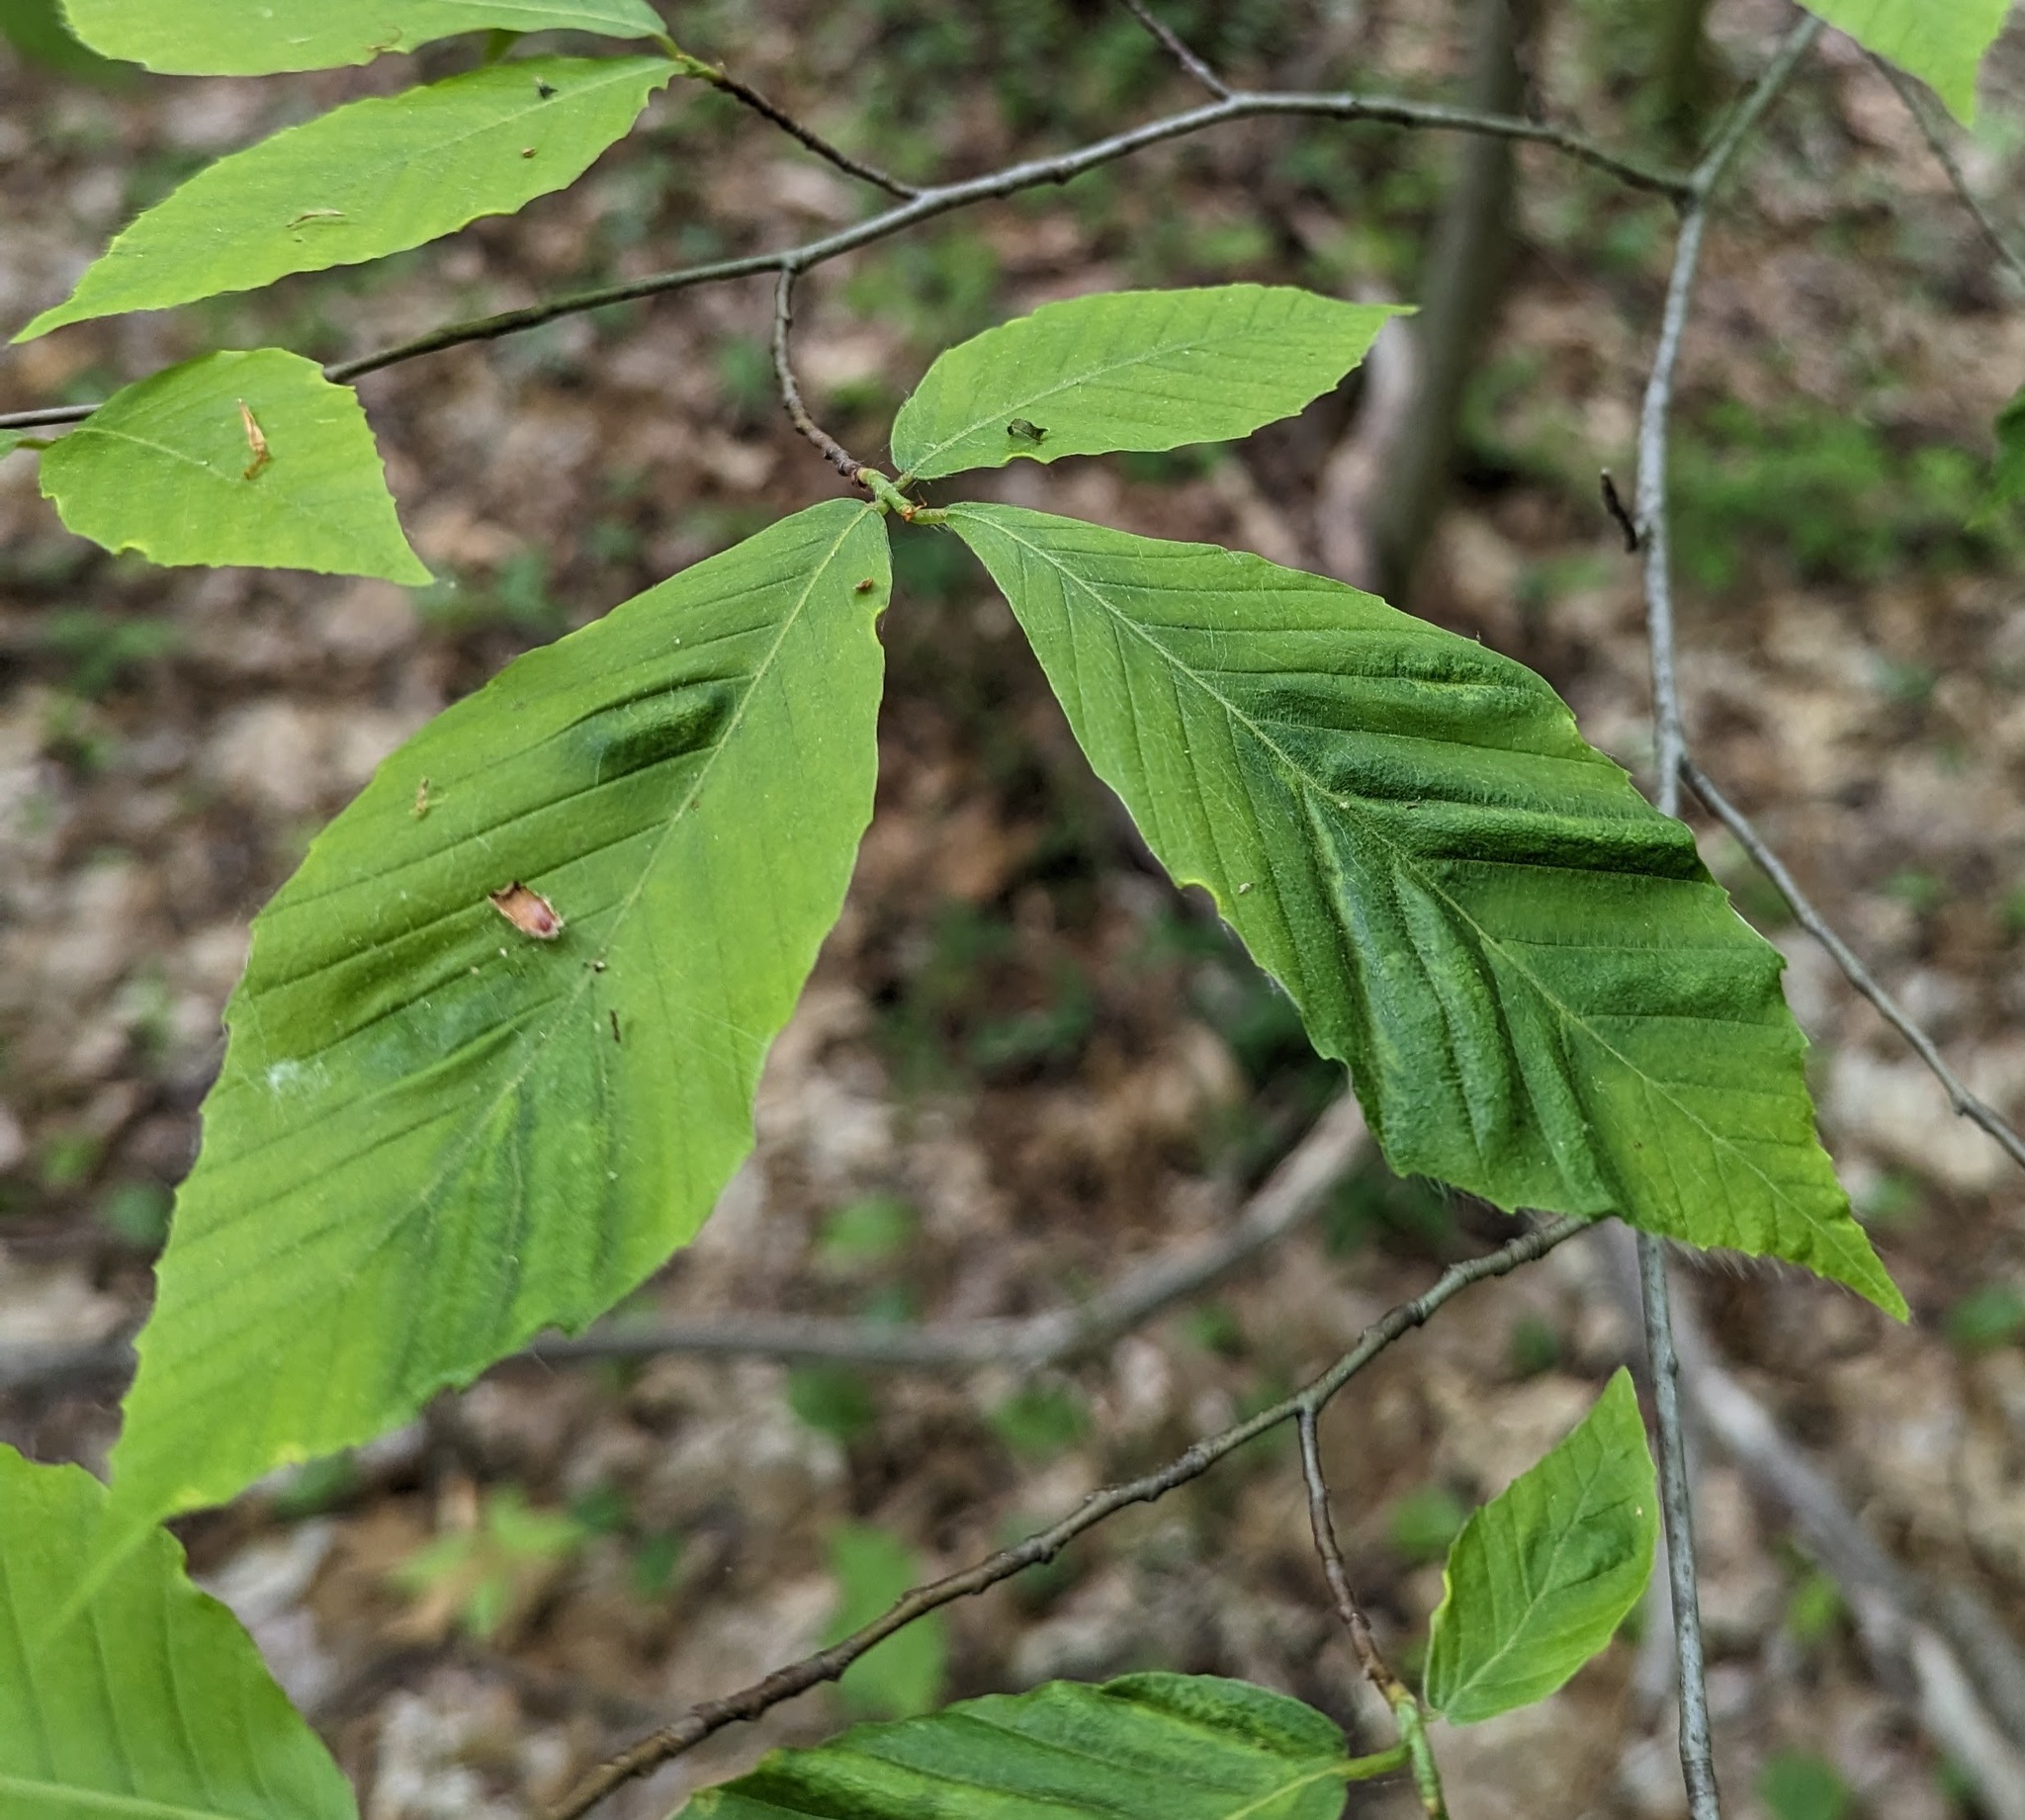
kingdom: Animalia
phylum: Nematoda
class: Chromadorea
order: Rhabditida
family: Anguinidae
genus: Litylenchus
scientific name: Litylenchus crenatae
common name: Beech leaf disease
